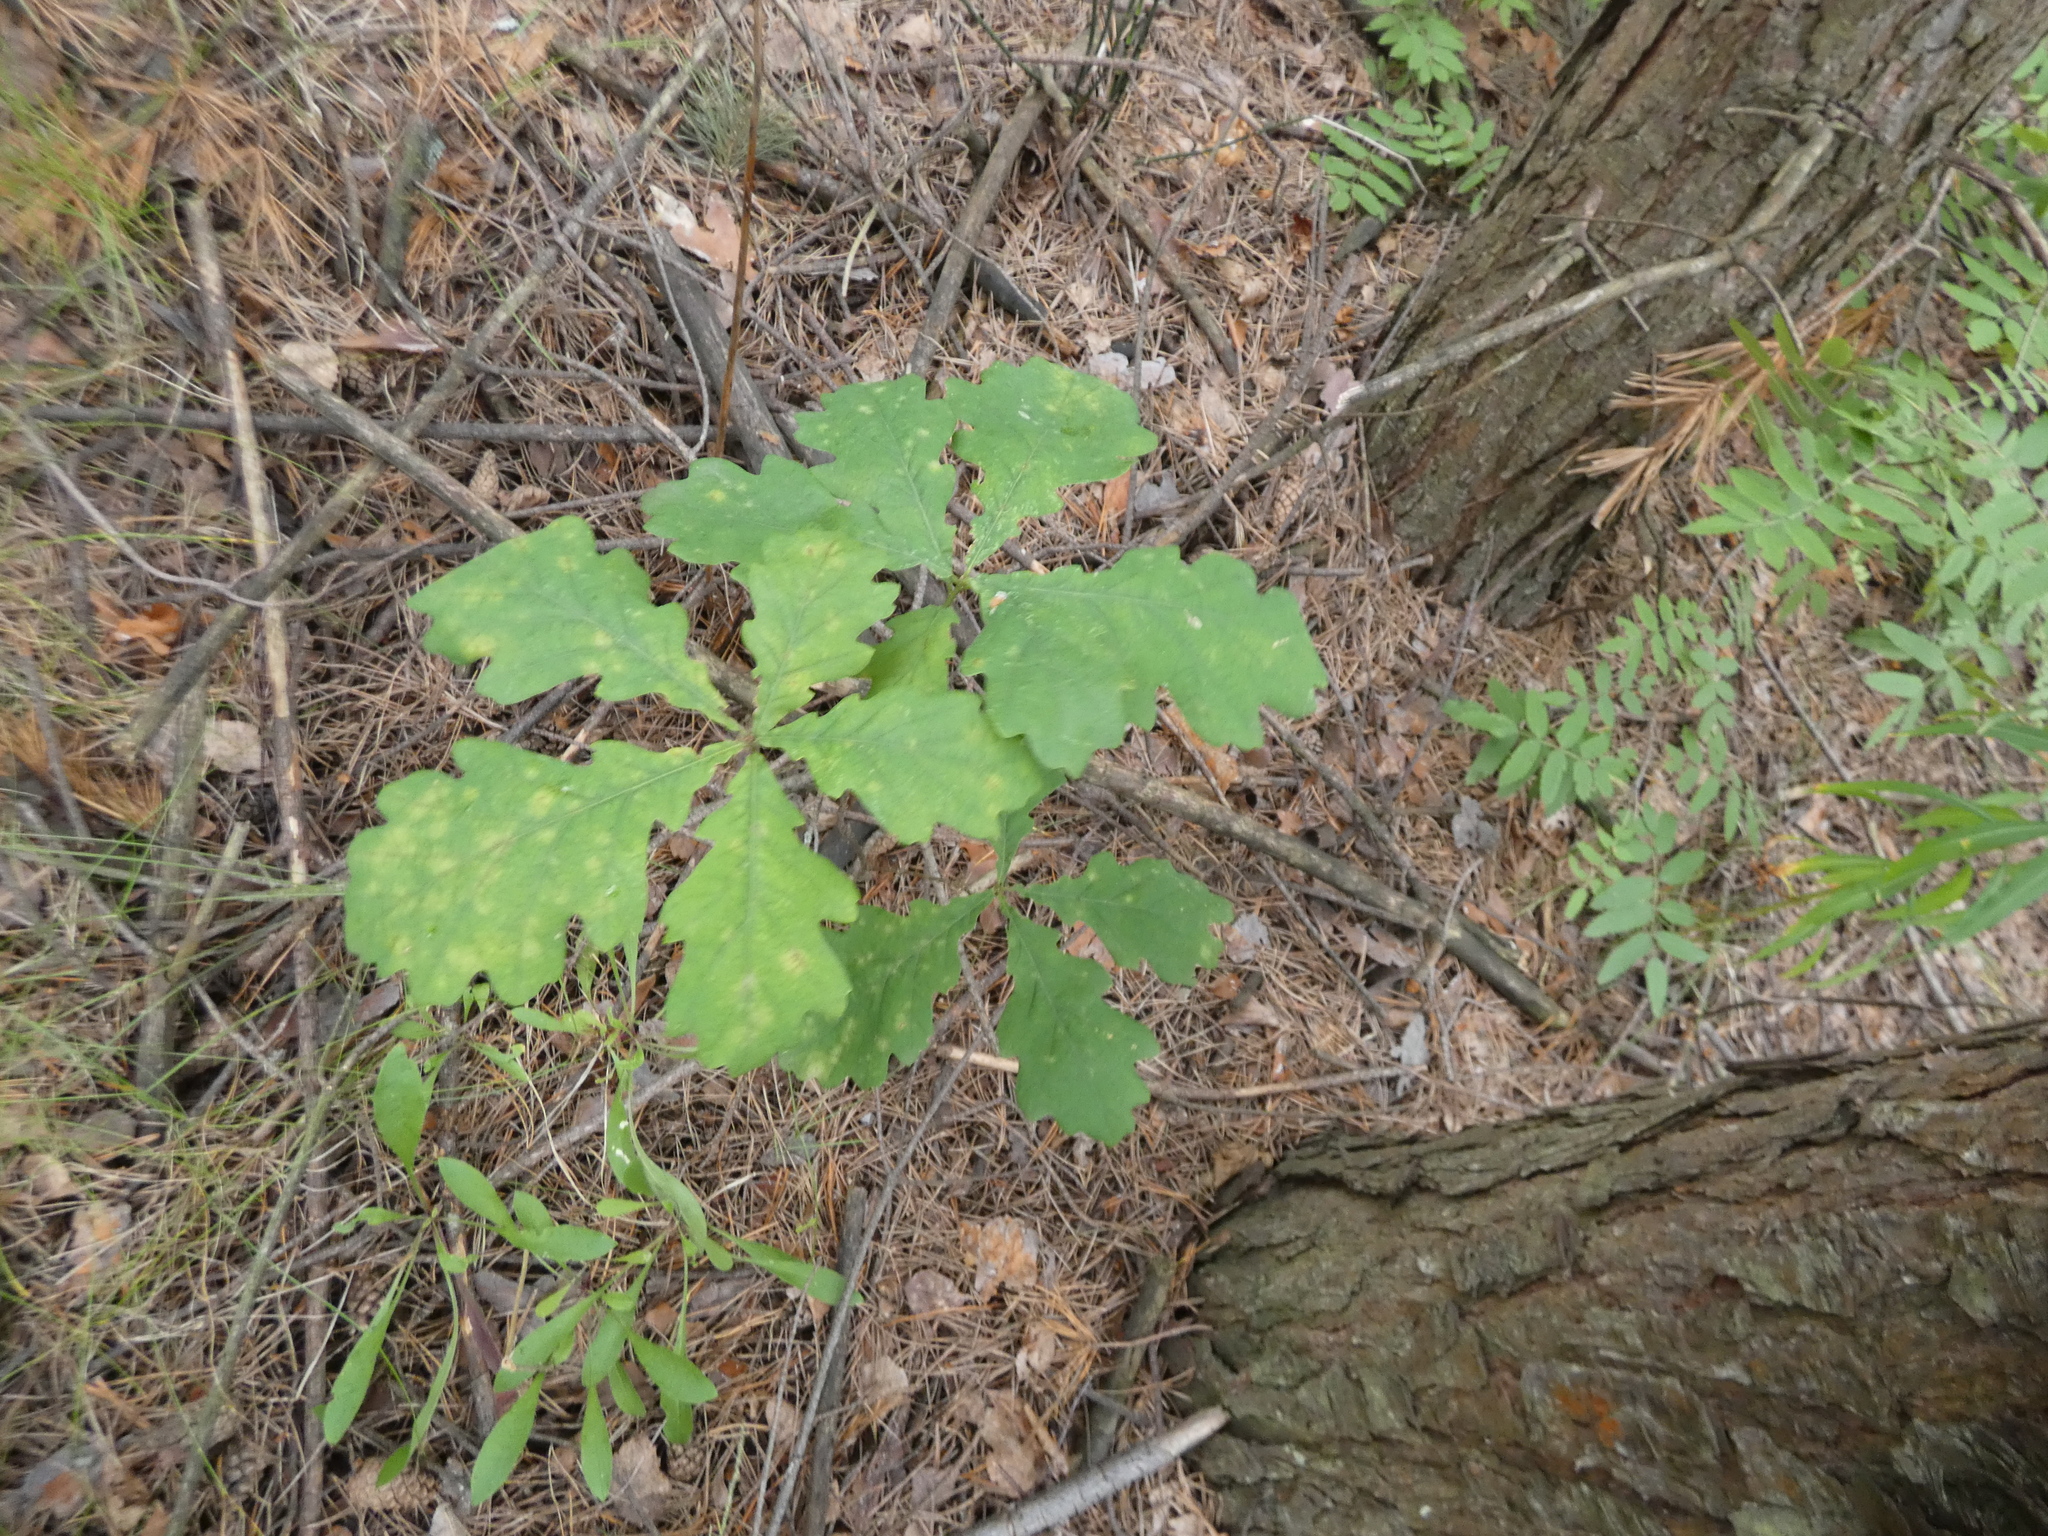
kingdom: Plantae
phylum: Tracheophyta
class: Magnoliopsida
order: Fagales
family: Fagaceae
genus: Quercus
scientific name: Quercus robur
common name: Pedunculate oak
